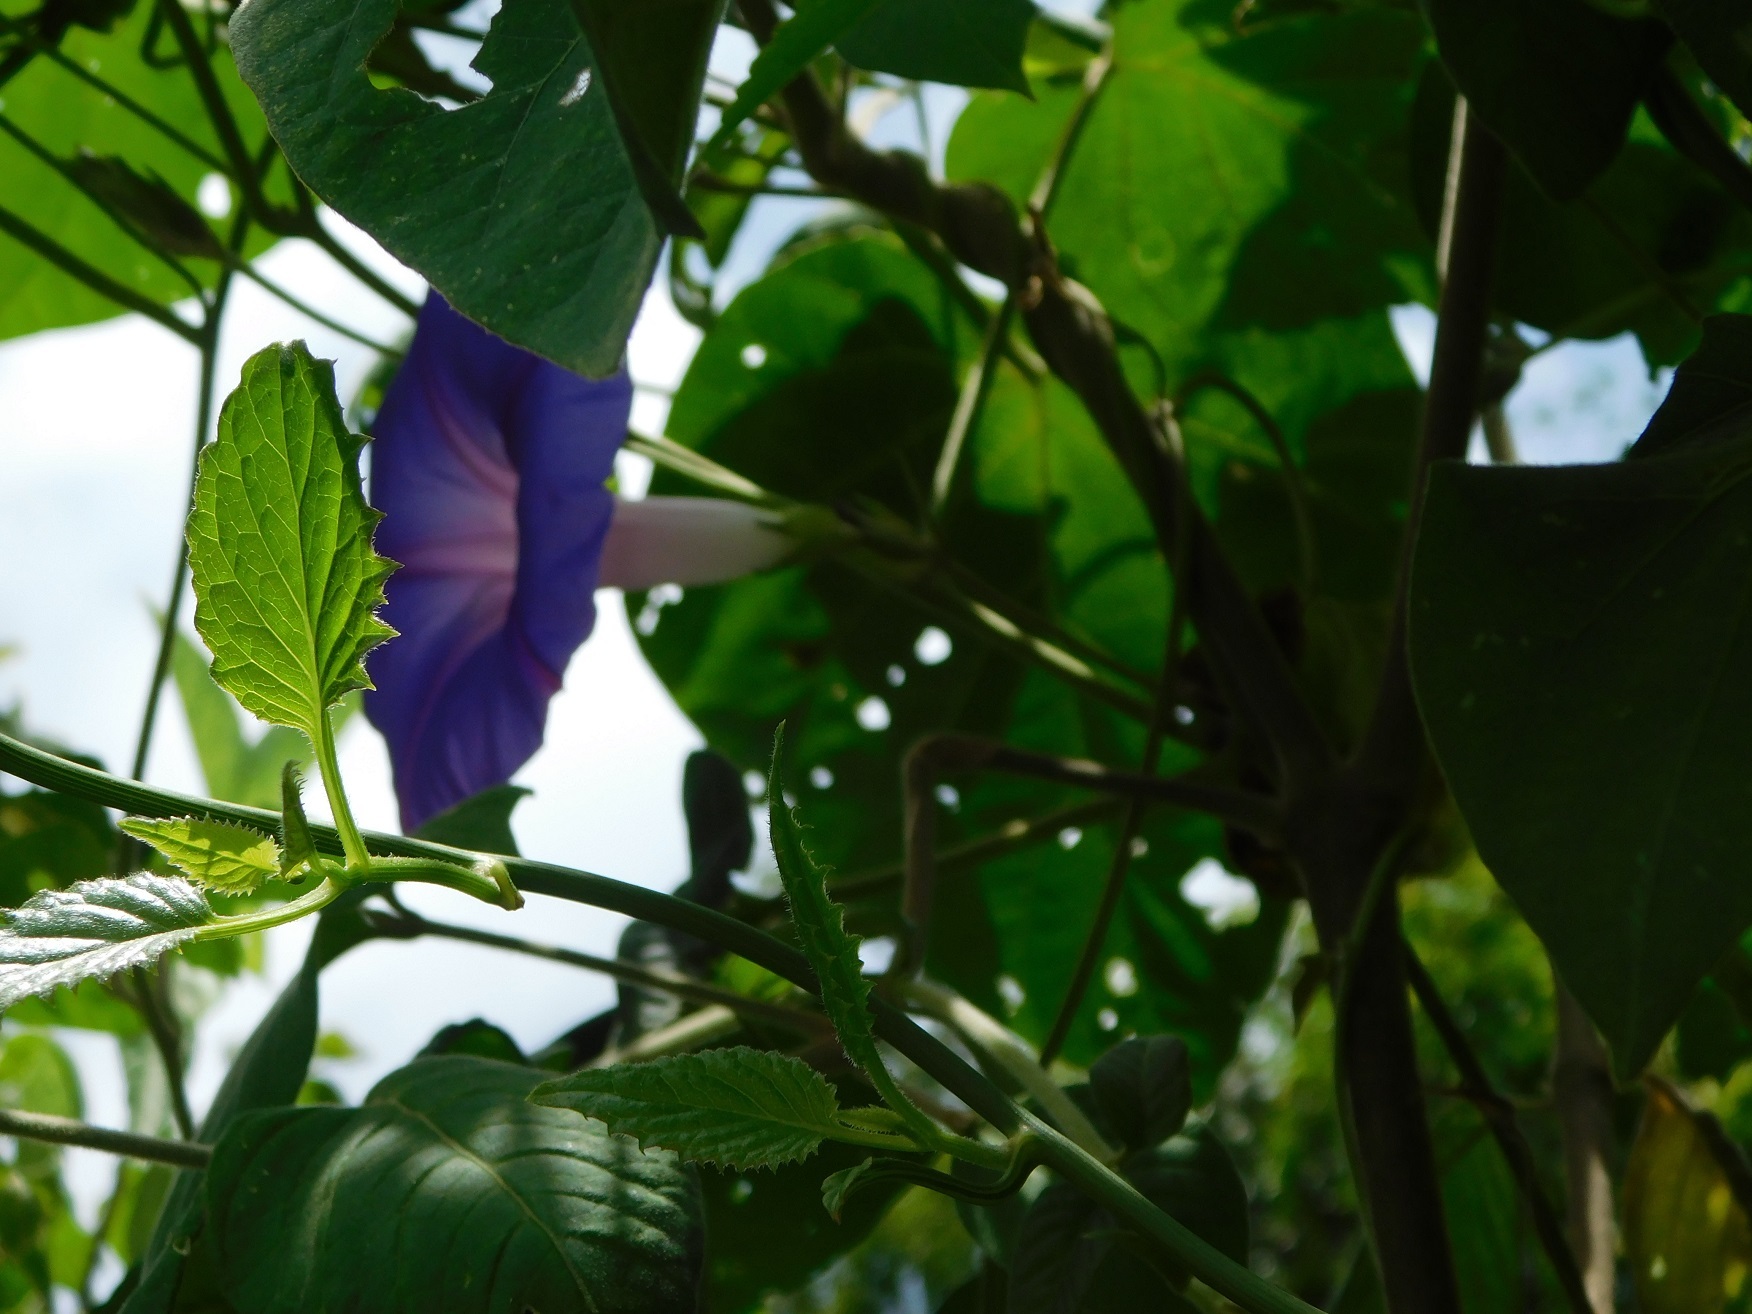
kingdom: Plantae
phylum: Tracheophyta
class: Magnoliopsida
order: Solanales
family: Convolvulaceae
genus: Ipomoea
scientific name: Ipomoea indica
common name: Blue dawnflower
